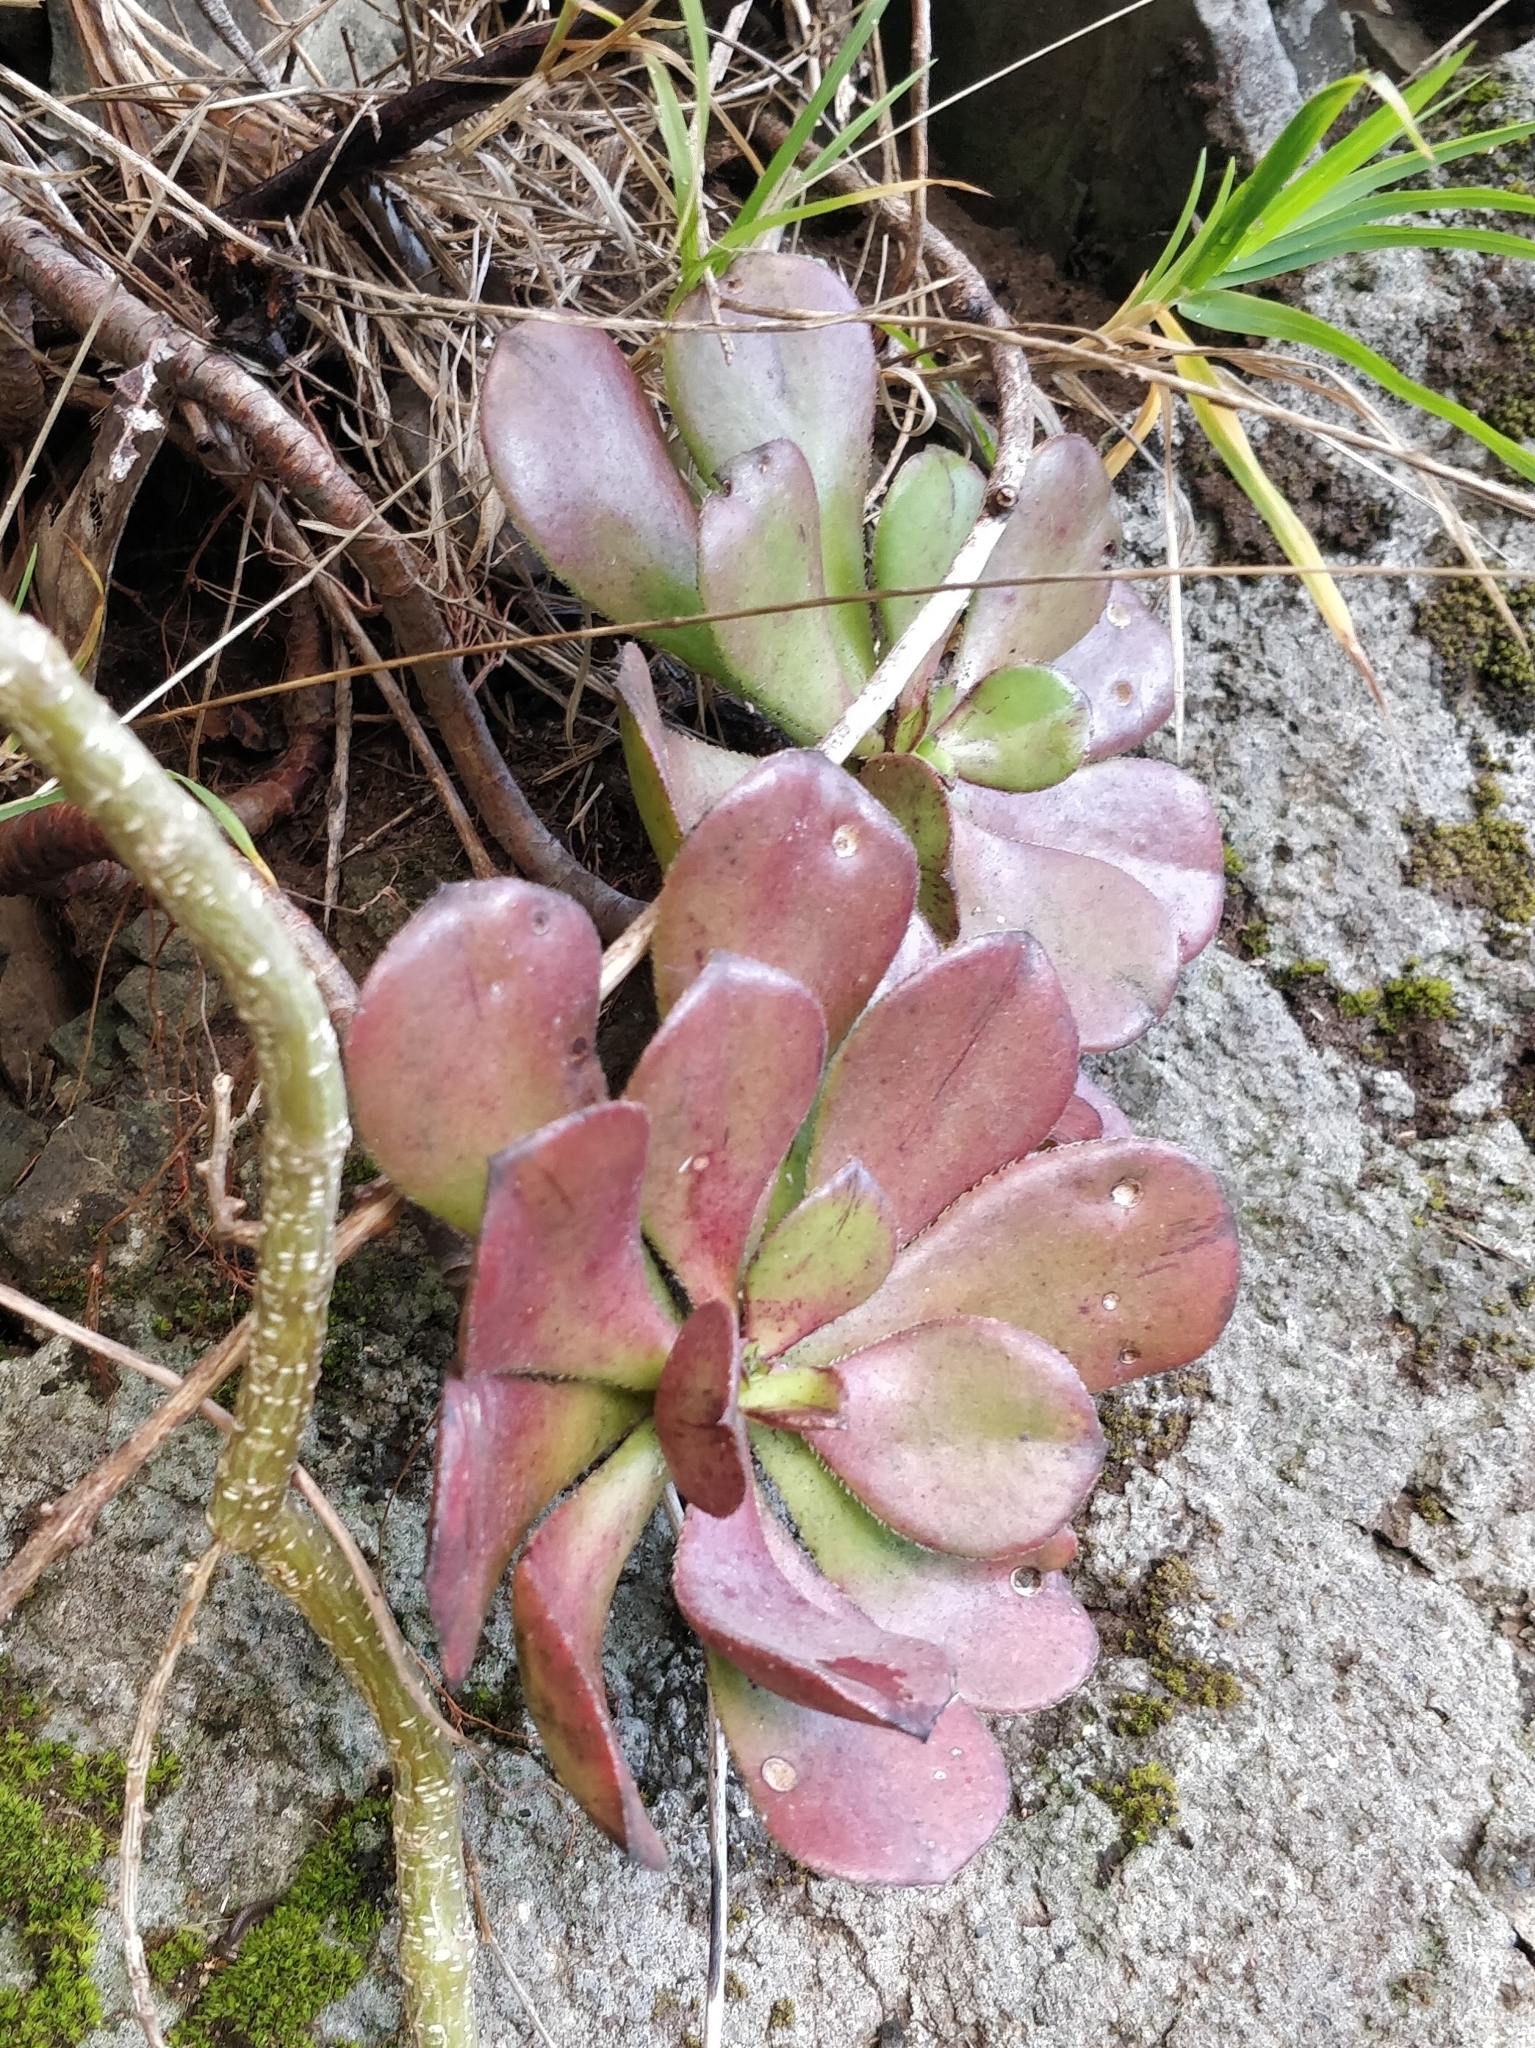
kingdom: Plantae
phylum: Tracheophyta
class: Magnoliopsida
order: Saxifragales
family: Crassulaceae
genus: Aeonium
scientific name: Aeonium glutinosum
